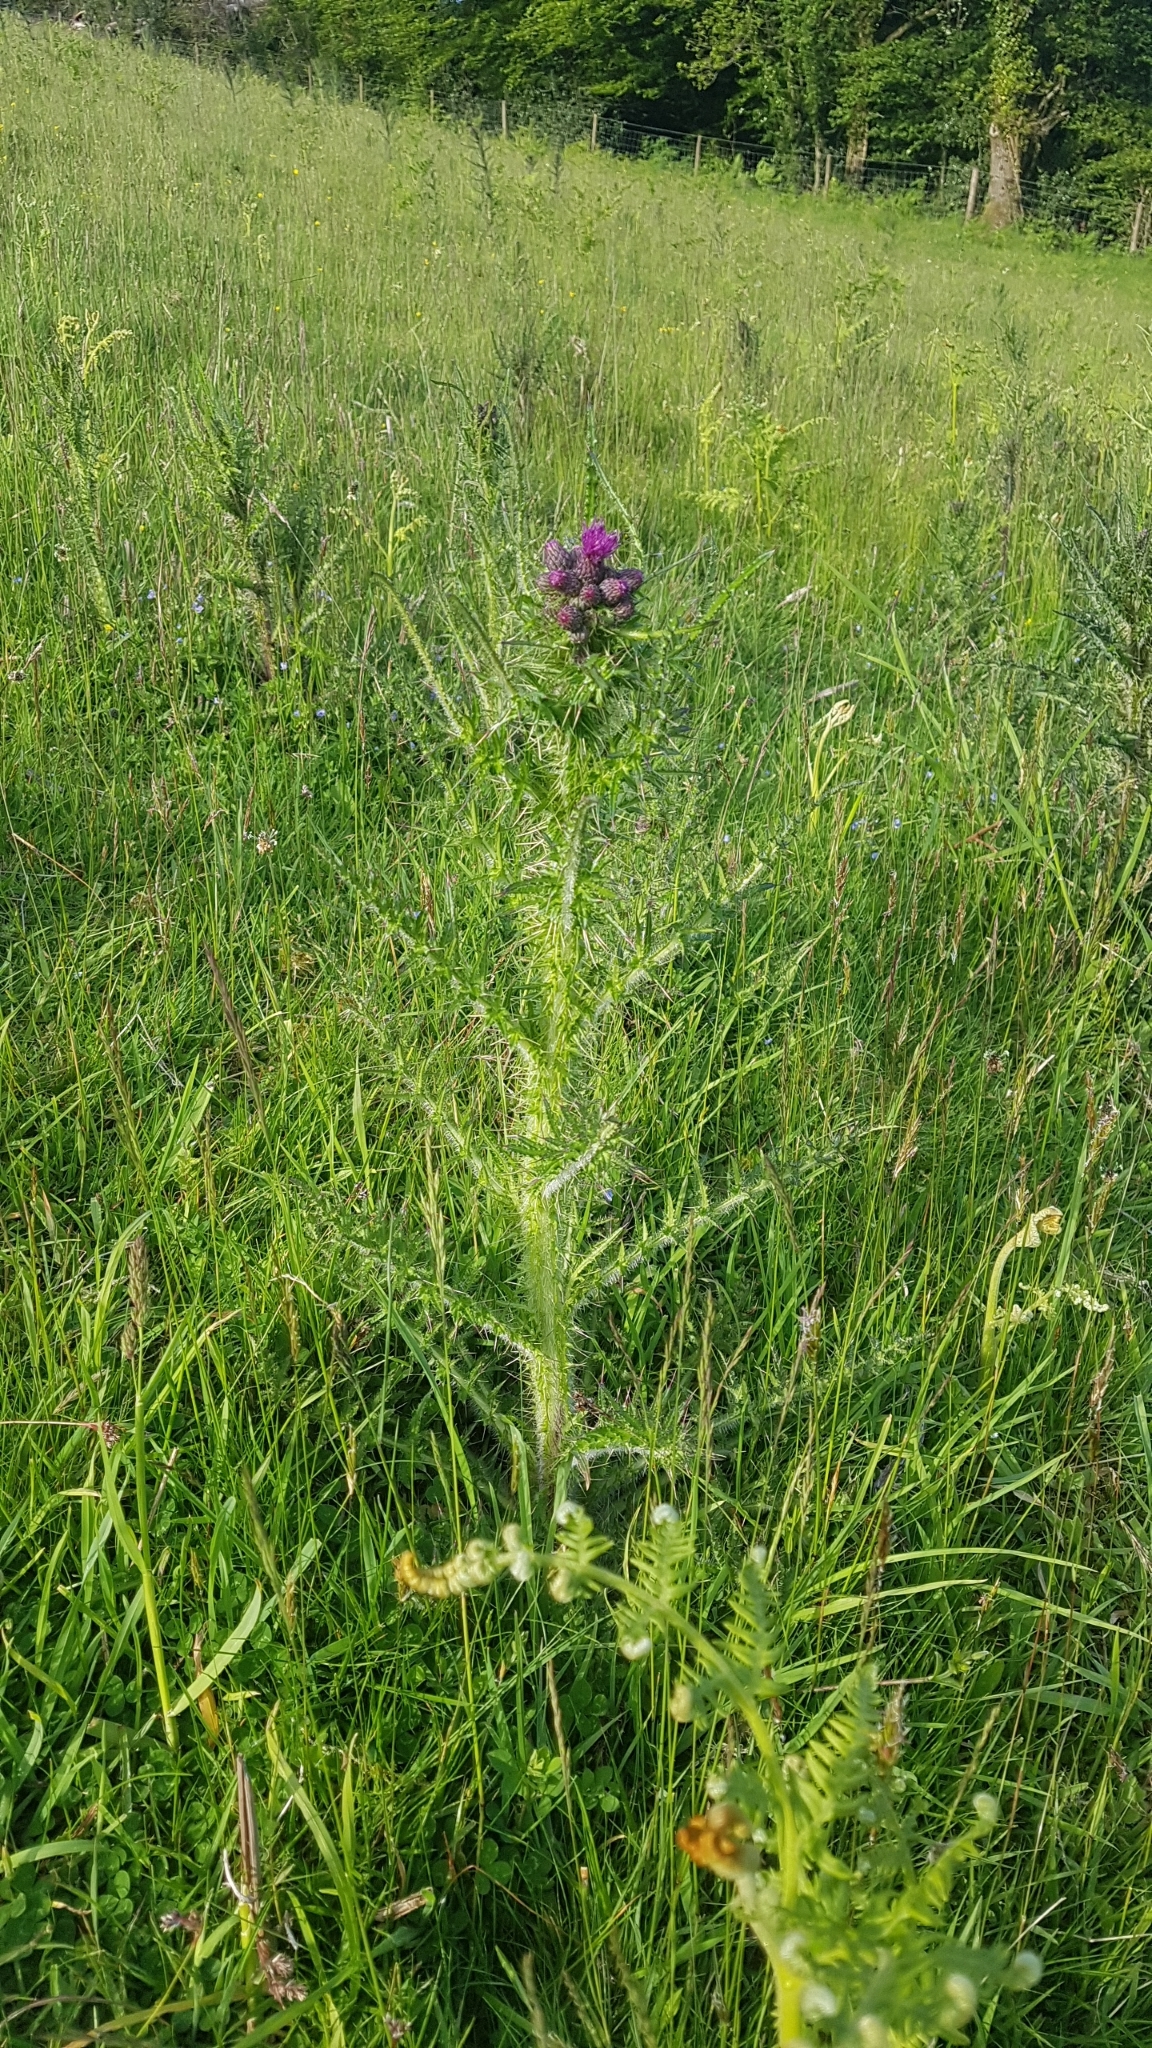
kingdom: Plantae
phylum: Tracheophyta
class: Magnoliopsida
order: Asterales
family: Asteraceae
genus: Cirsium
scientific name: Cirsium palustre
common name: Marsh thistle
